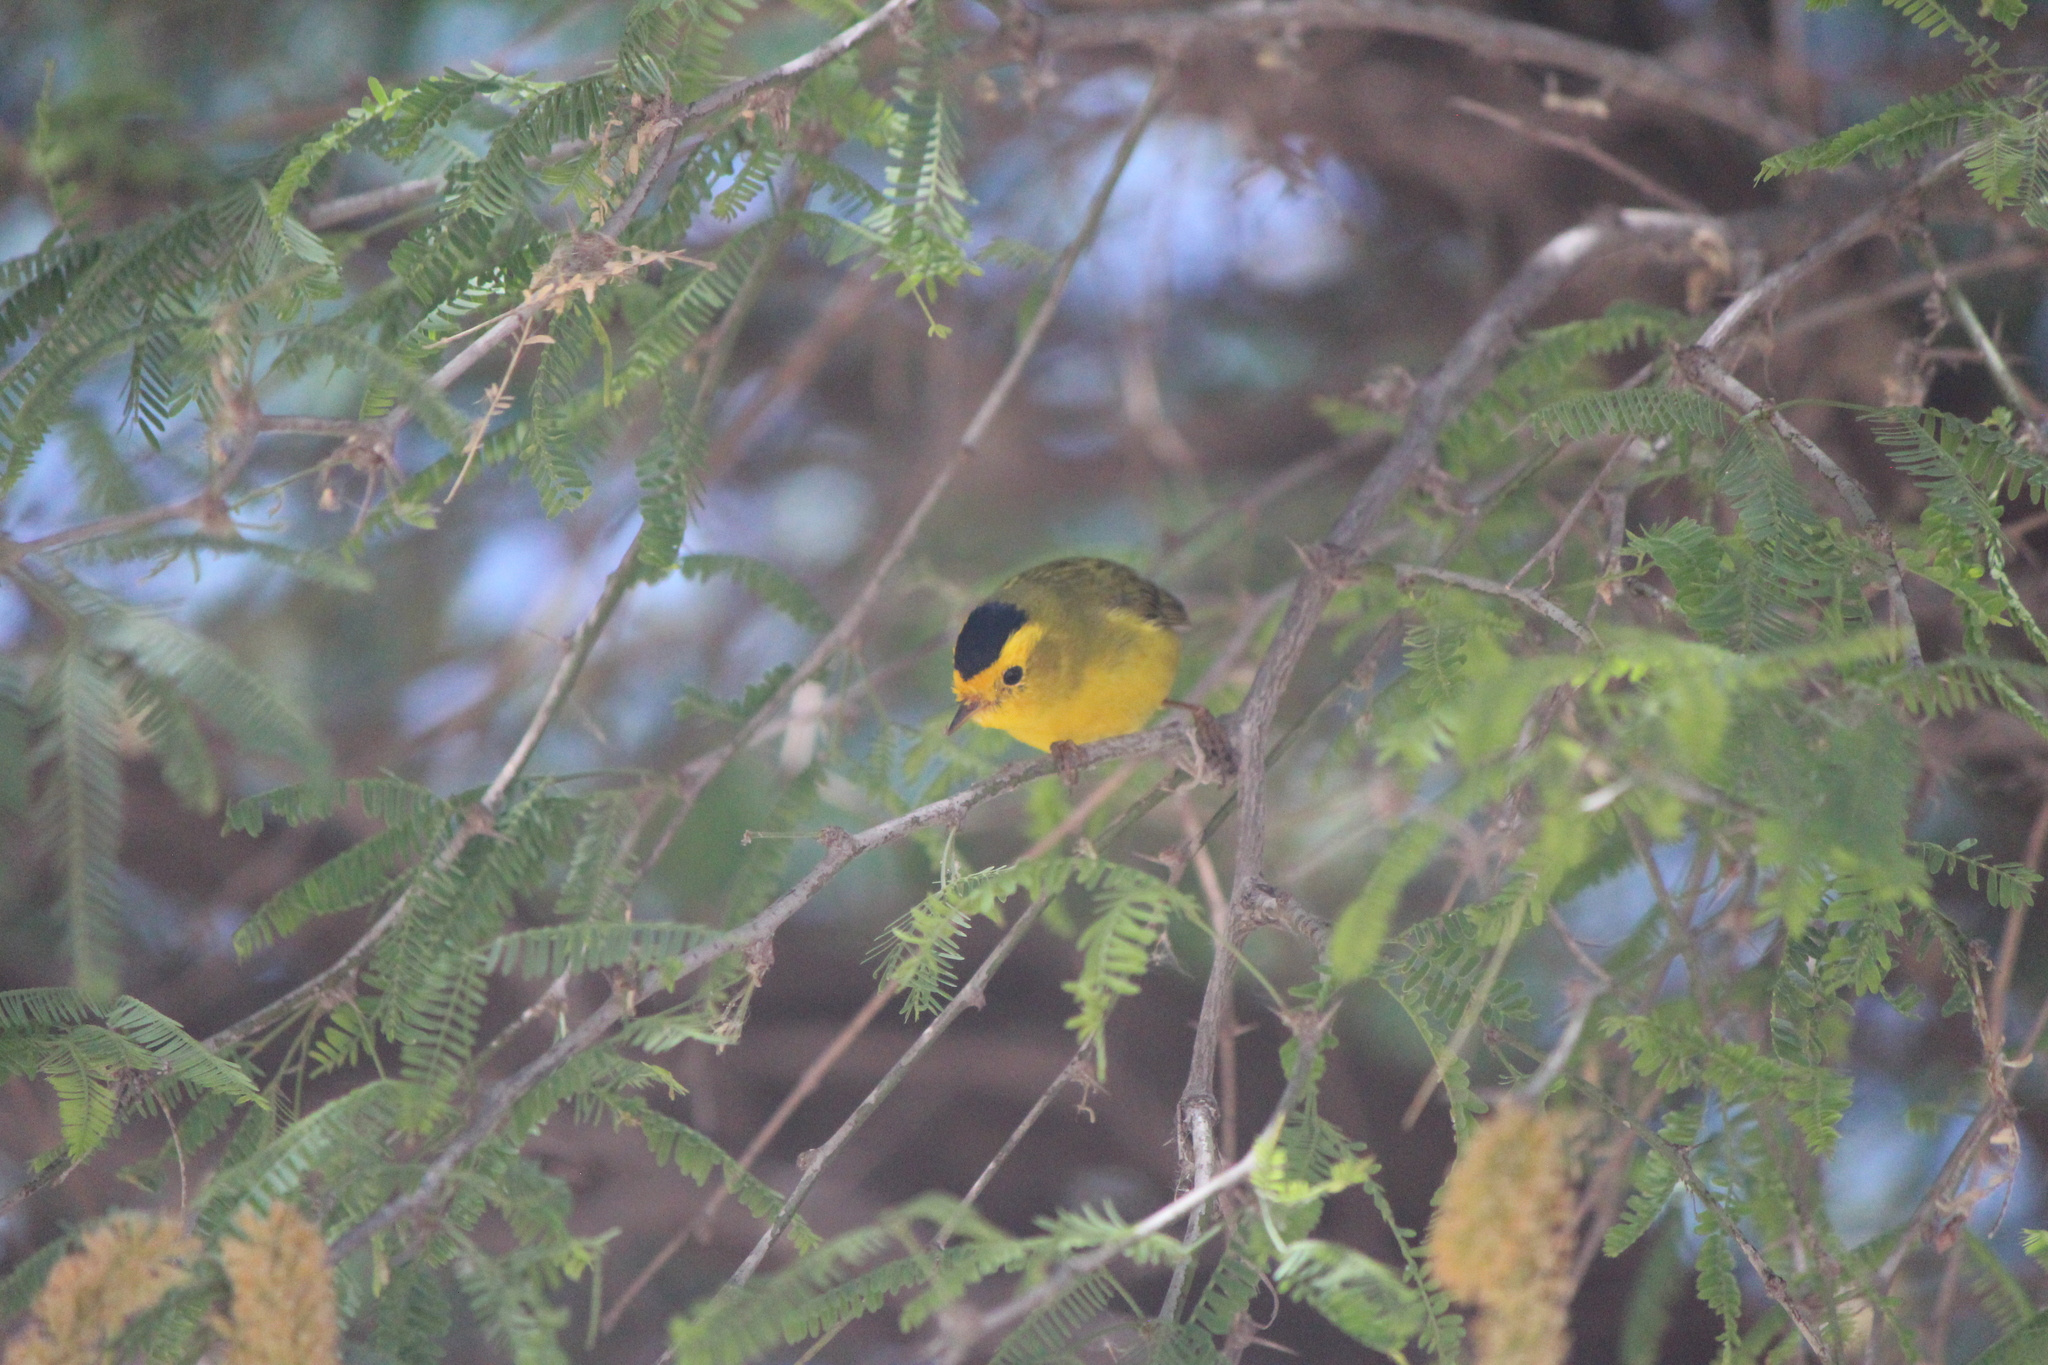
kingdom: Animalia
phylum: Chordata
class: Aves
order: Passeriformes
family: Parulidae
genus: Cardellina
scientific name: Cardellina pusilla
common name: Wilson's warbler
